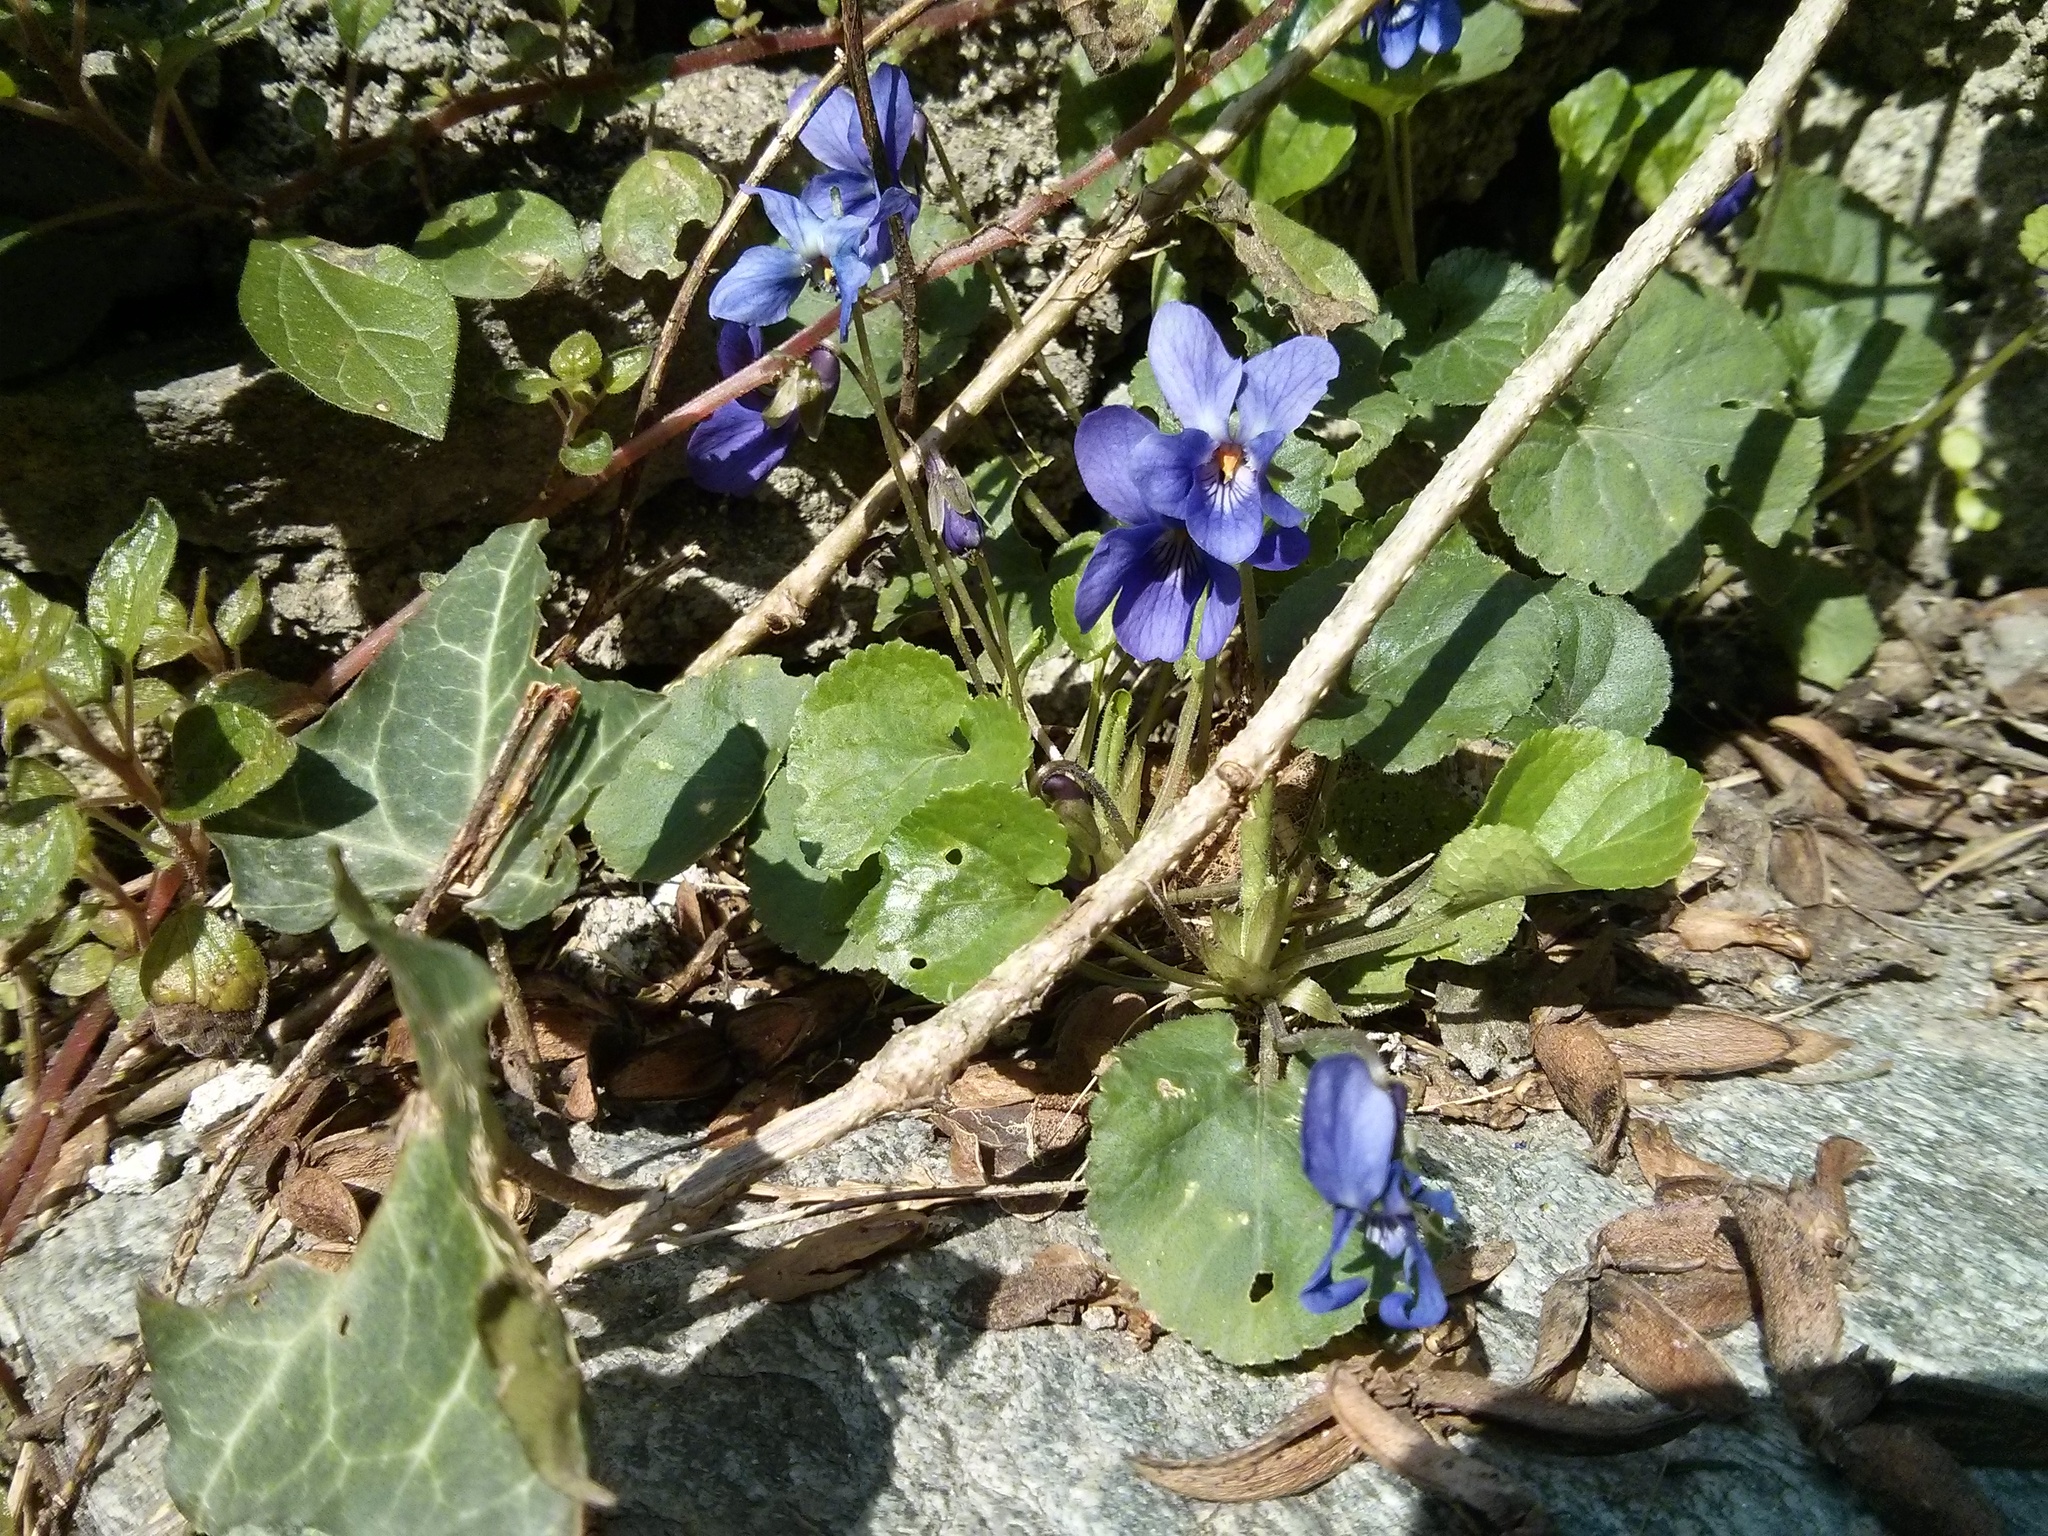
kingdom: Plantae
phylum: Tracheophyta
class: Magnoliopsida
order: Malpighiales
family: Violaceae
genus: Viola
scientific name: Viola odorata
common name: Sweet violet
